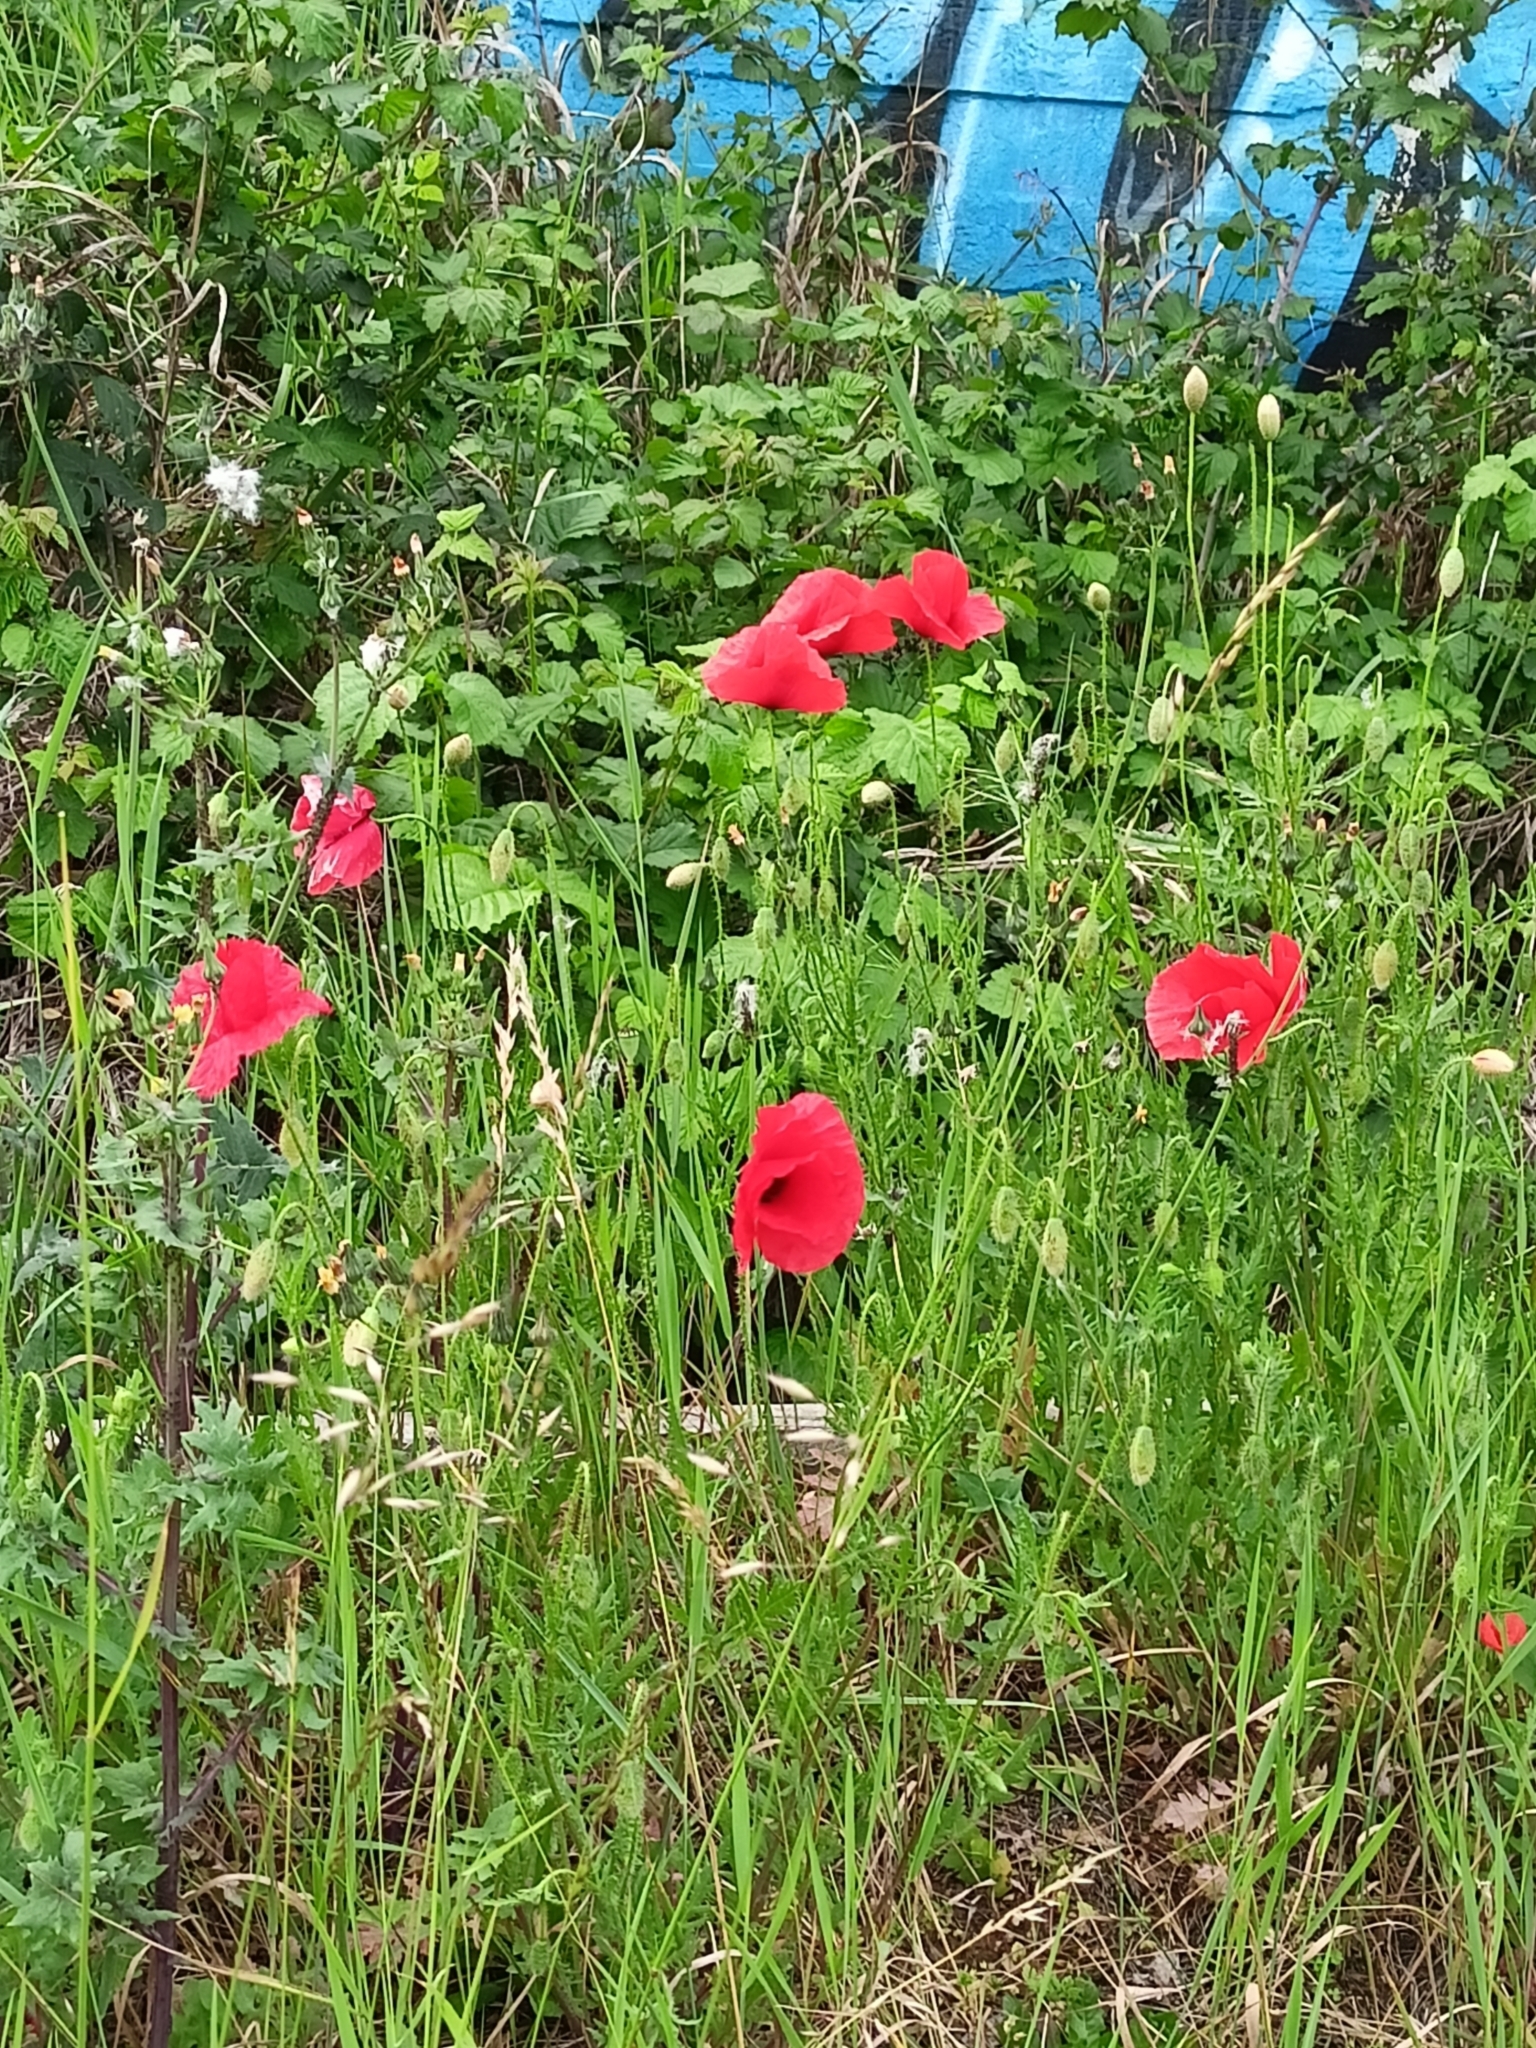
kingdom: Plantae
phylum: Tracheophyta
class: Magnoliopsida
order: Ranunculales
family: Papaveraceae
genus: Papaver
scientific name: Papaver rhoeas
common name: Corn poppy
